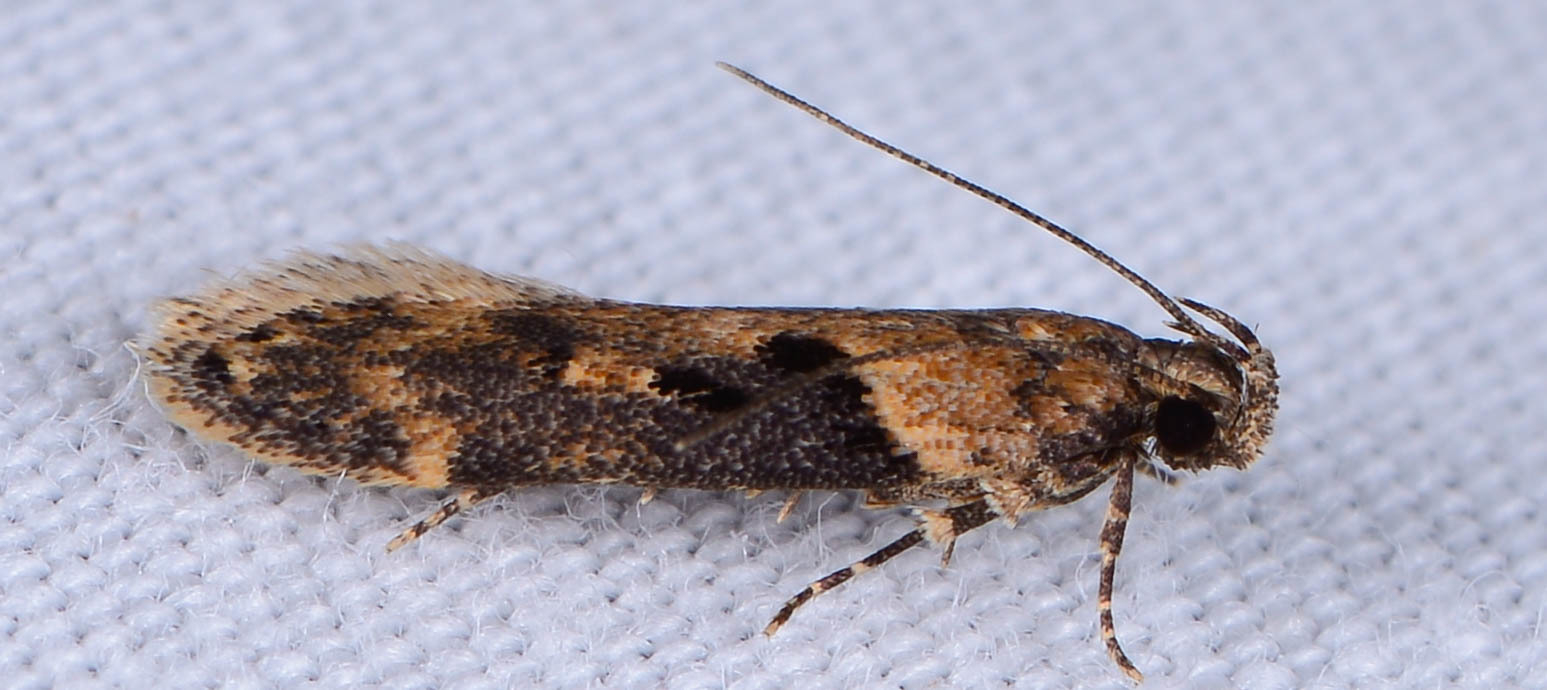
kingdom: Animalia
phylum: Arthropoda
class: Insecta
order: Lepidoptera
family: Gelechiidae
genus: Chionodes
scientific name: Chionodes mediofuscella
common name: Black-smudged chionodes moth
